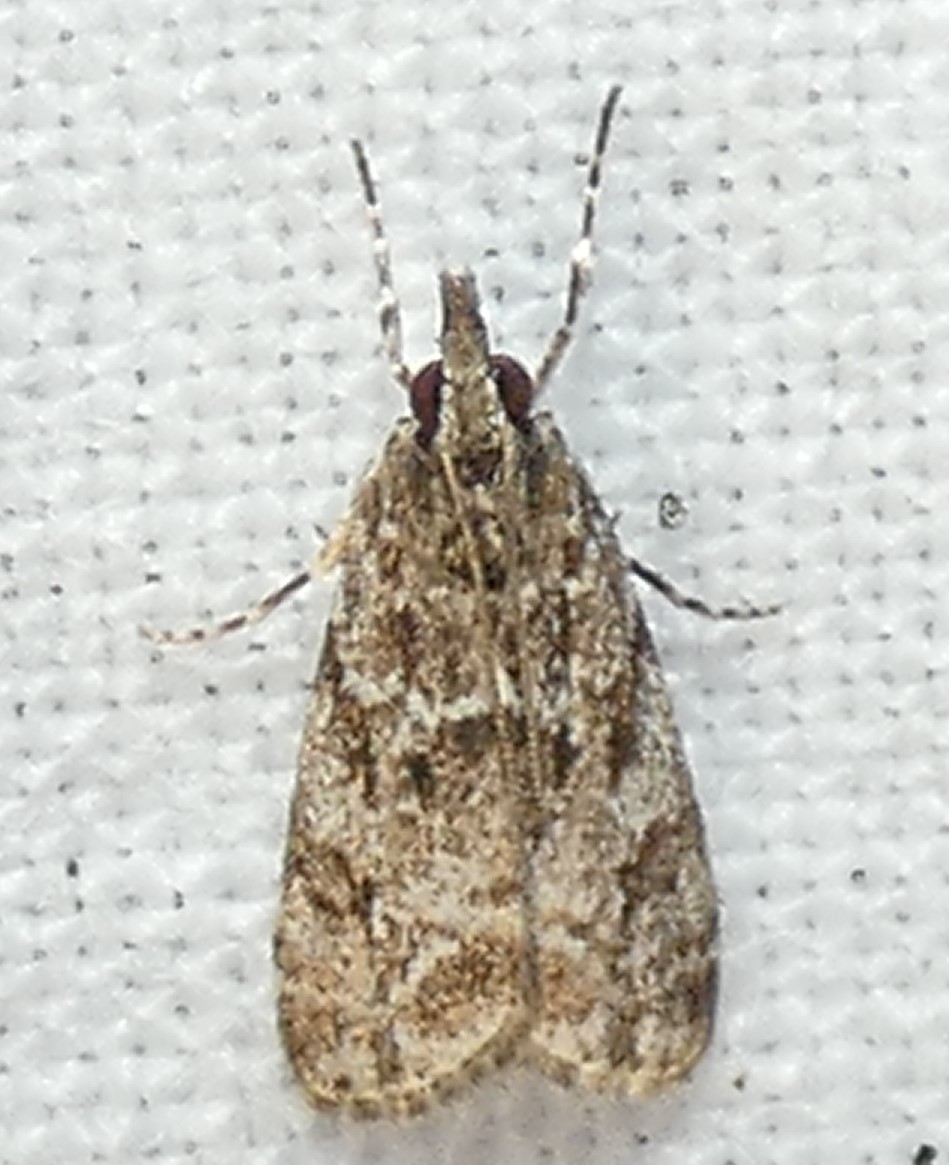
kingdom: Animalia
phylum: Arthropoda
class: Insecta
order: Lepidoptera
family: Crambidae
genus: Eudonia
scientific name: Eudonia heterosalis
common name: Mcdunnough's eudonia
